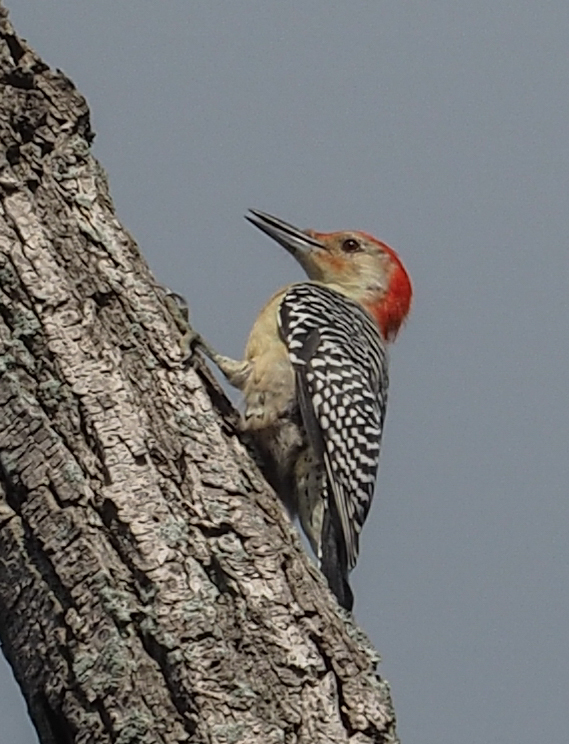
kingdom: Animalia
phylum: Chordata
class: Aves
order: Piciformes
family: Picidae
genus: Melanerpes
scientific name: Melanerpes carolinus
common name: Red-bellied woodpecker
